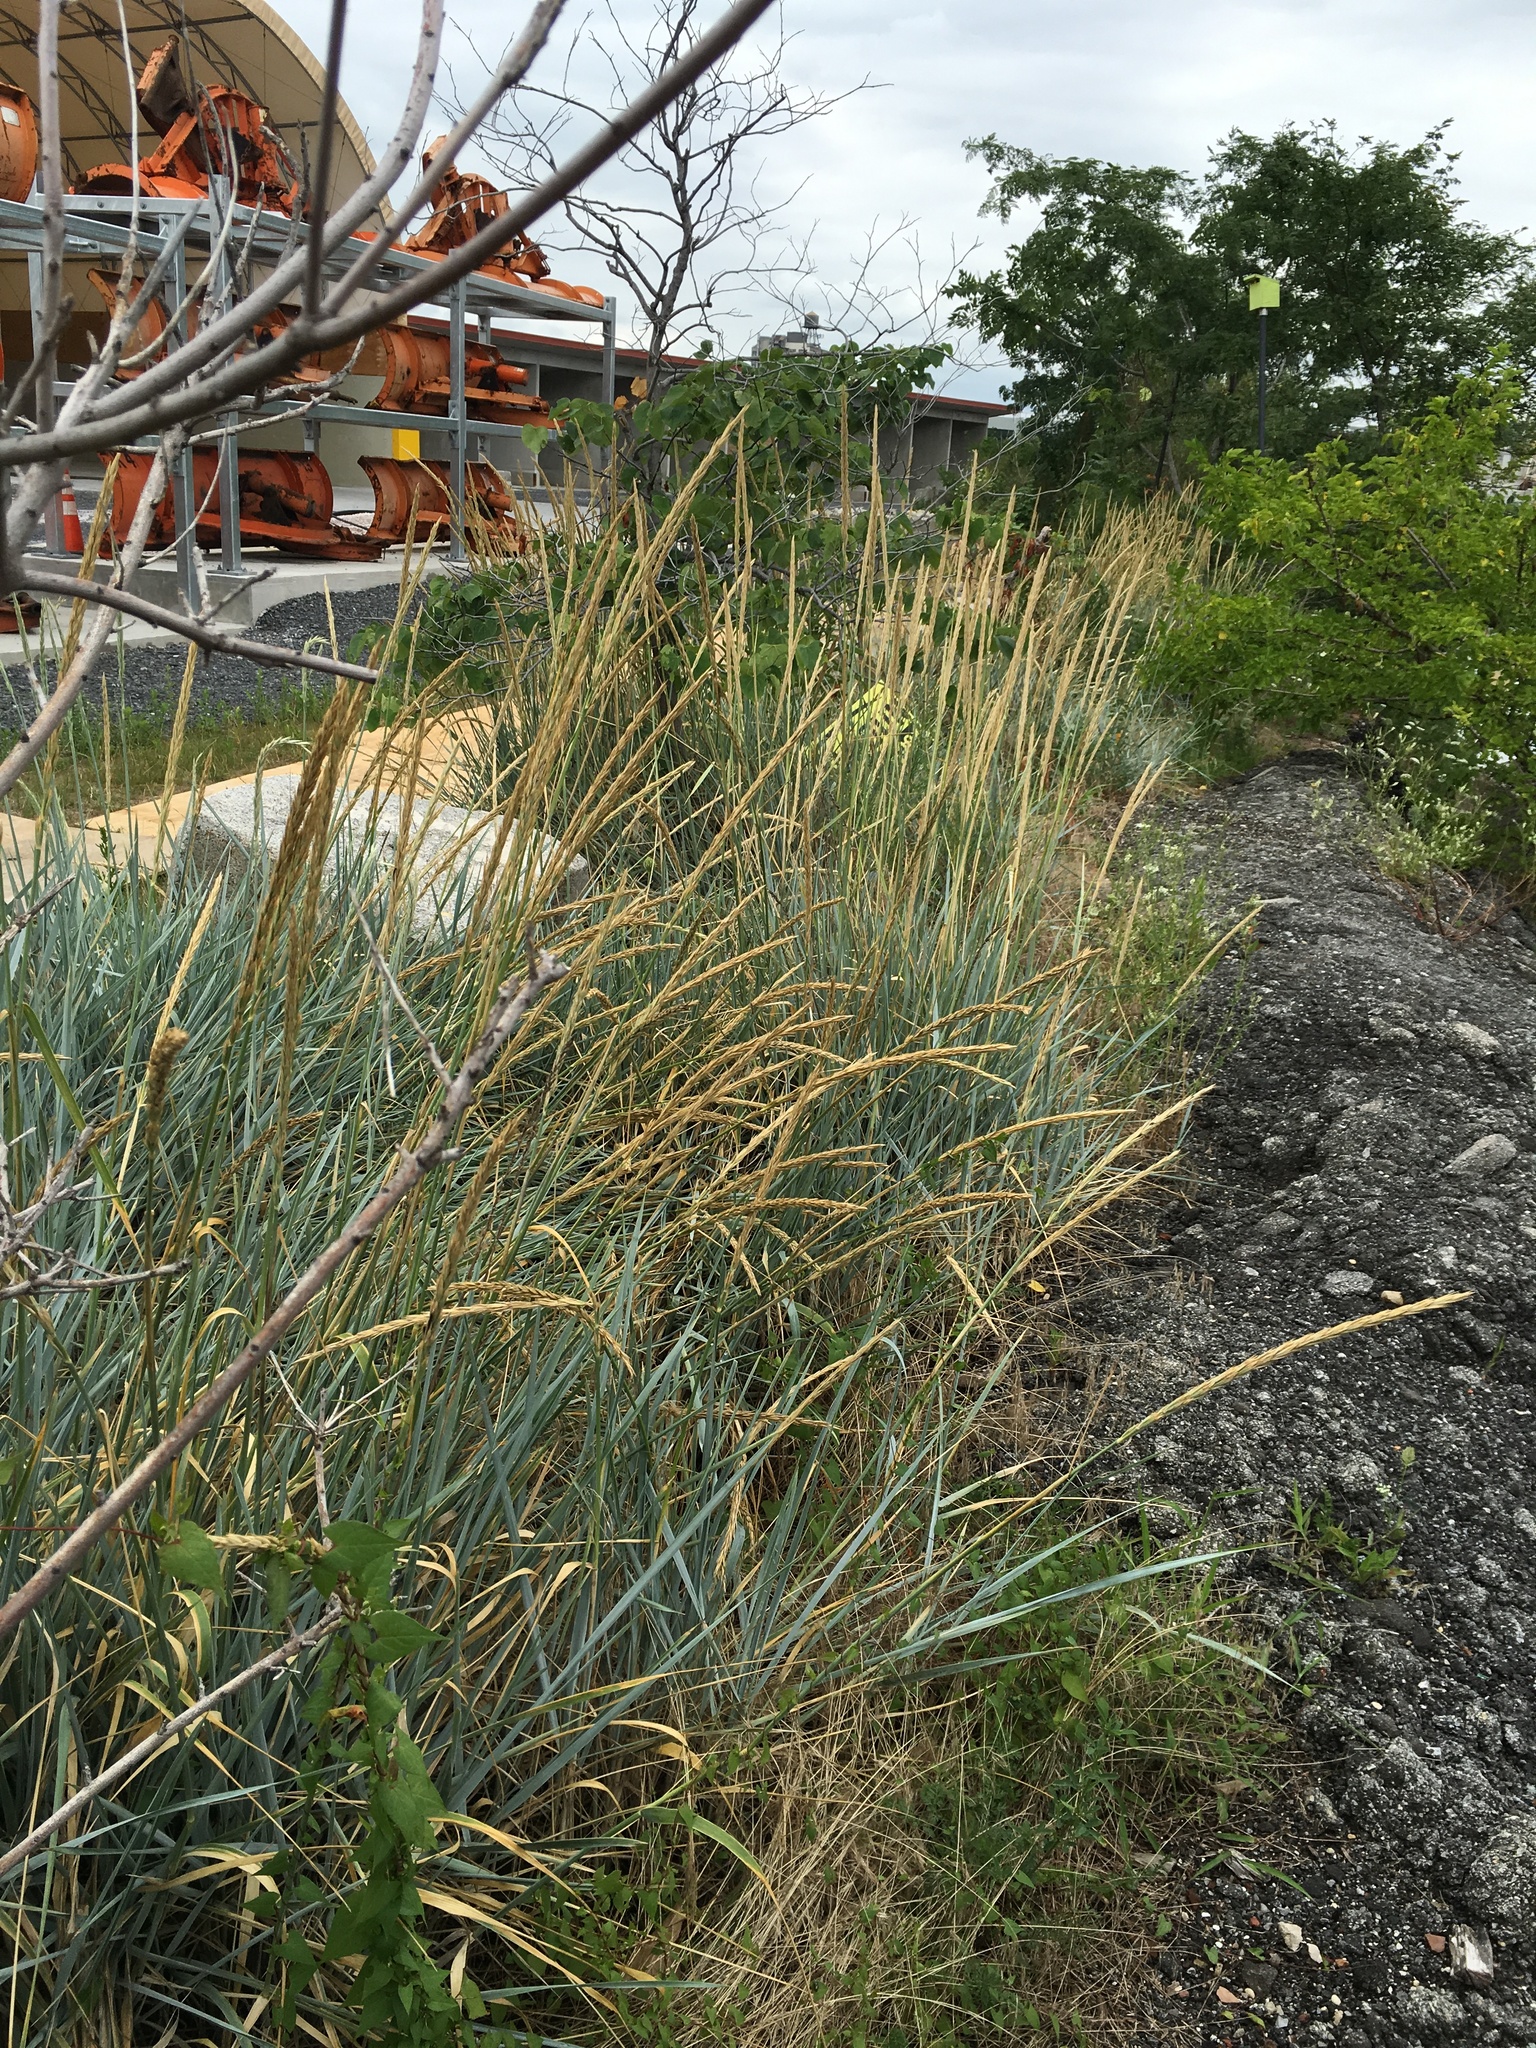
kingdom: Plantae
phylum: Tracheophyta
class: Liliopsida
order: Poales
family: Poaceae
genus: Leymus
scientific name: Leymus arenarius
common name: Lyme-grass
